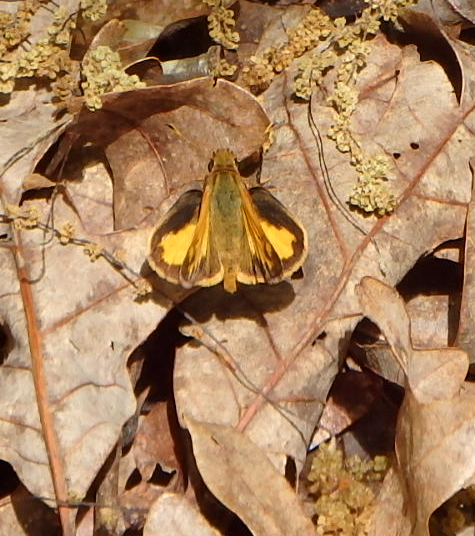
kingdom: Animalia
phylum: Arthropoda
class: Insecta
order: Lepidoptera
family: Hesperiidae
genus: Lon
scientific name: Lon zabulon
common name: Zabulon skipper
